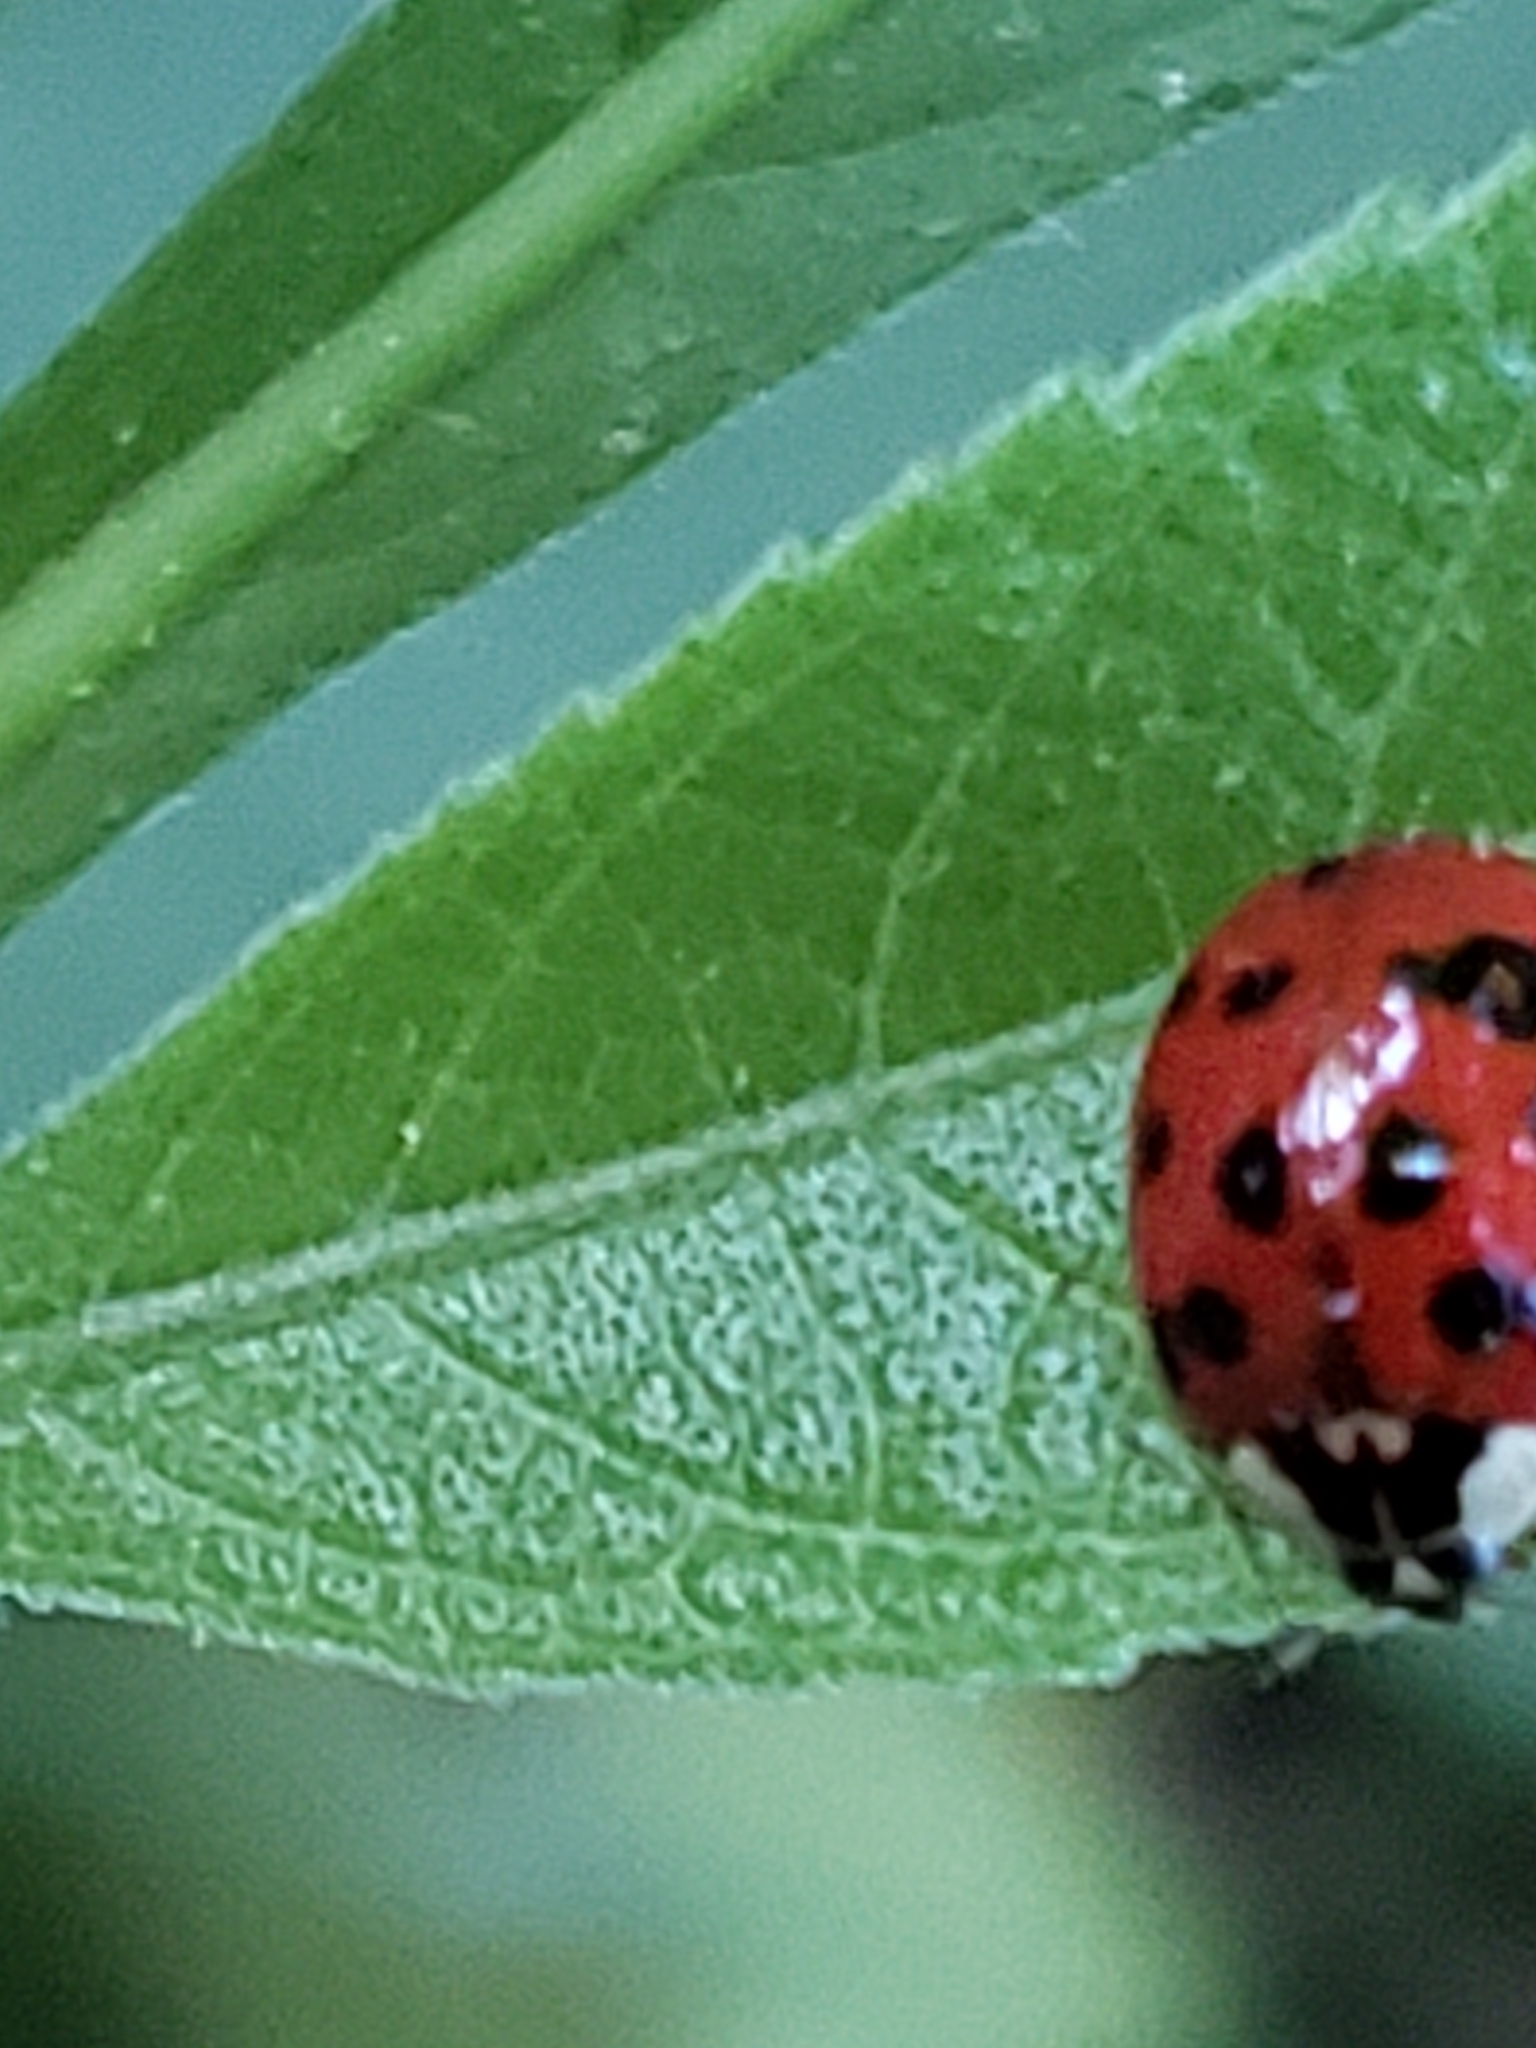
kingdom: Animalia
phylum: Arthropoda
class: Insecta
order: Coleoptera
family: Coccinellidae
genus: Harmonia
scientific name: Harmonia axyridis
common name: Harlequin ladybird
